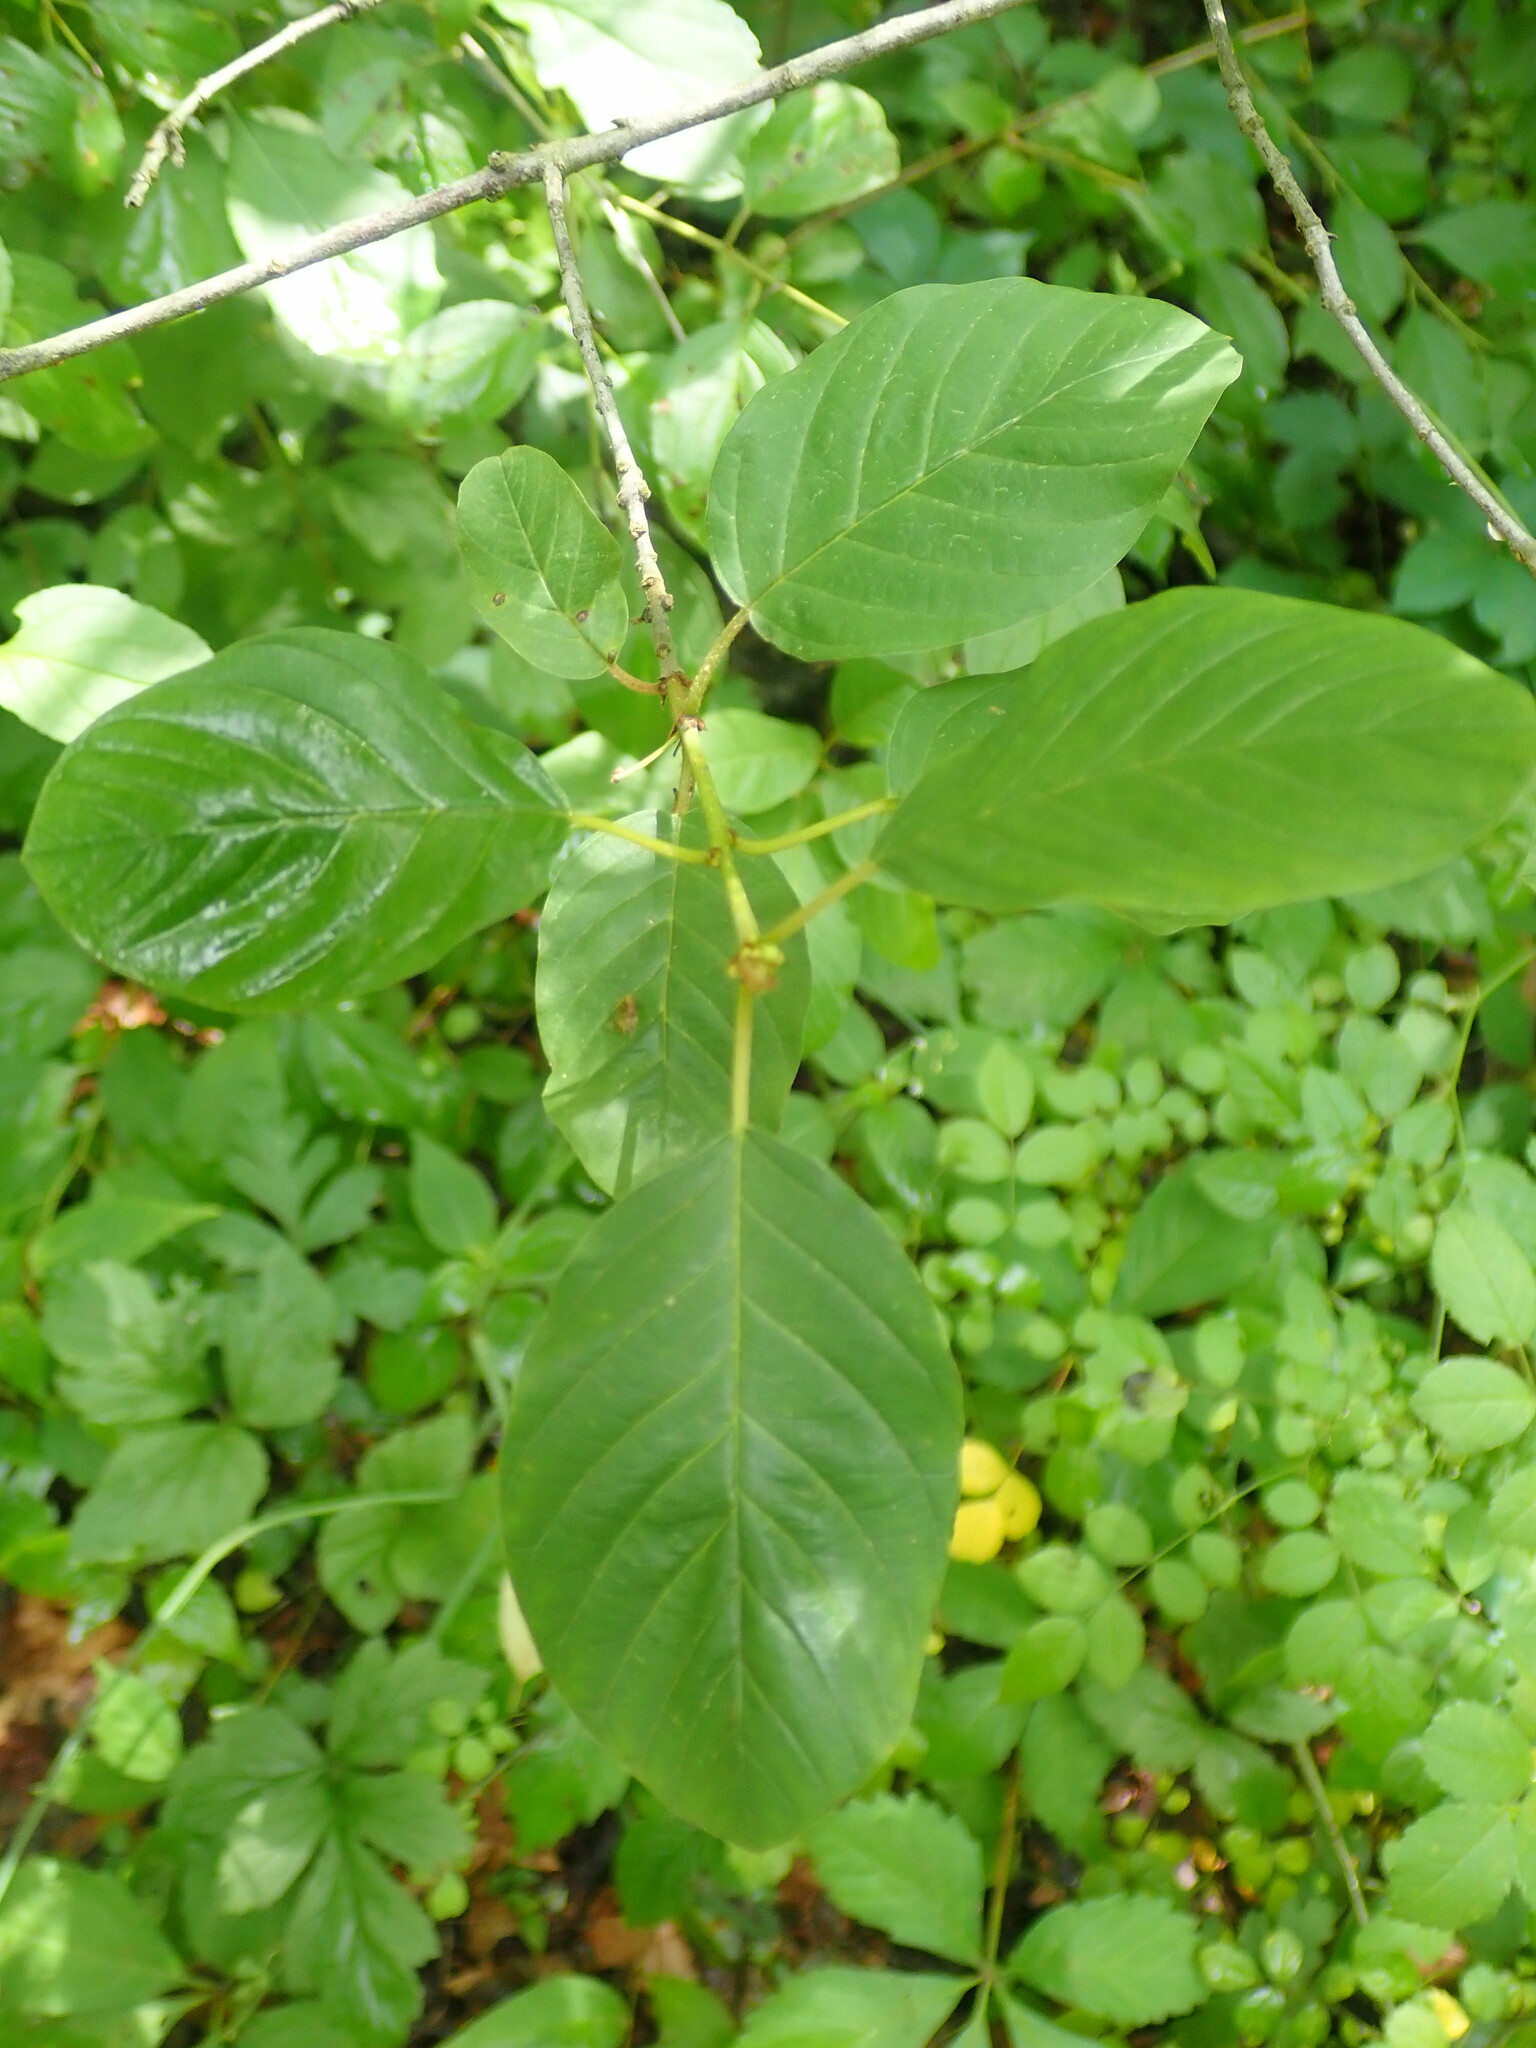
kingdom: Plantae
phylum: Tracheophyta
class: Magnoliopsida
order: Rosales
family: Rhamnaceae
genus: Frangula
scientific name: Frangula alnus
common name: Alder buckthorn
